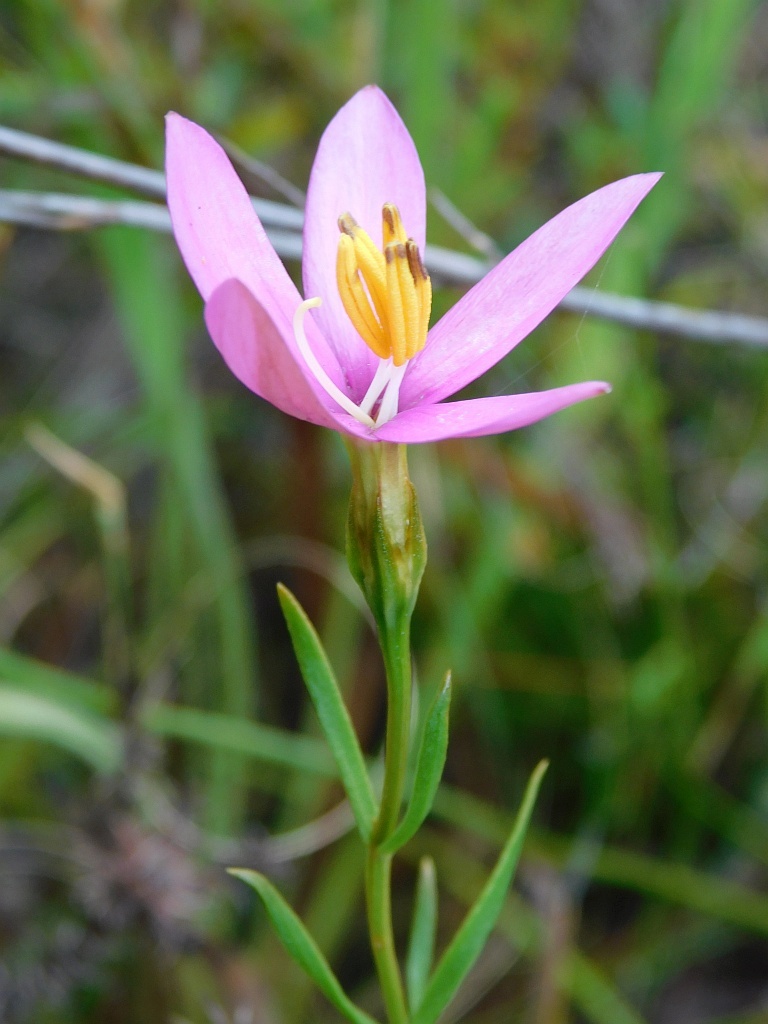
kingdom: Plantae
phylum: Tracheophyta
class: Magnoliopsida
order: Gentianales
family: Gentianaceae
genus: Chironia
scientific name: Chironia tetragona
